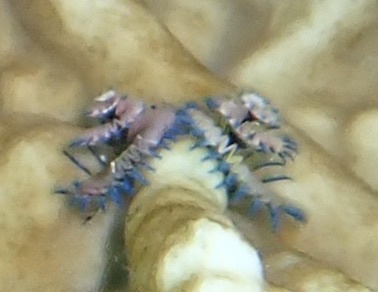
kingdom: Animalia
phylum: Annelida
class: Polychaeta
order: Sabellida
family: Serpulidae
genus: Spirobranchus
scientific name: Spirobranchus giganteus
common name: Christmas tree worm
